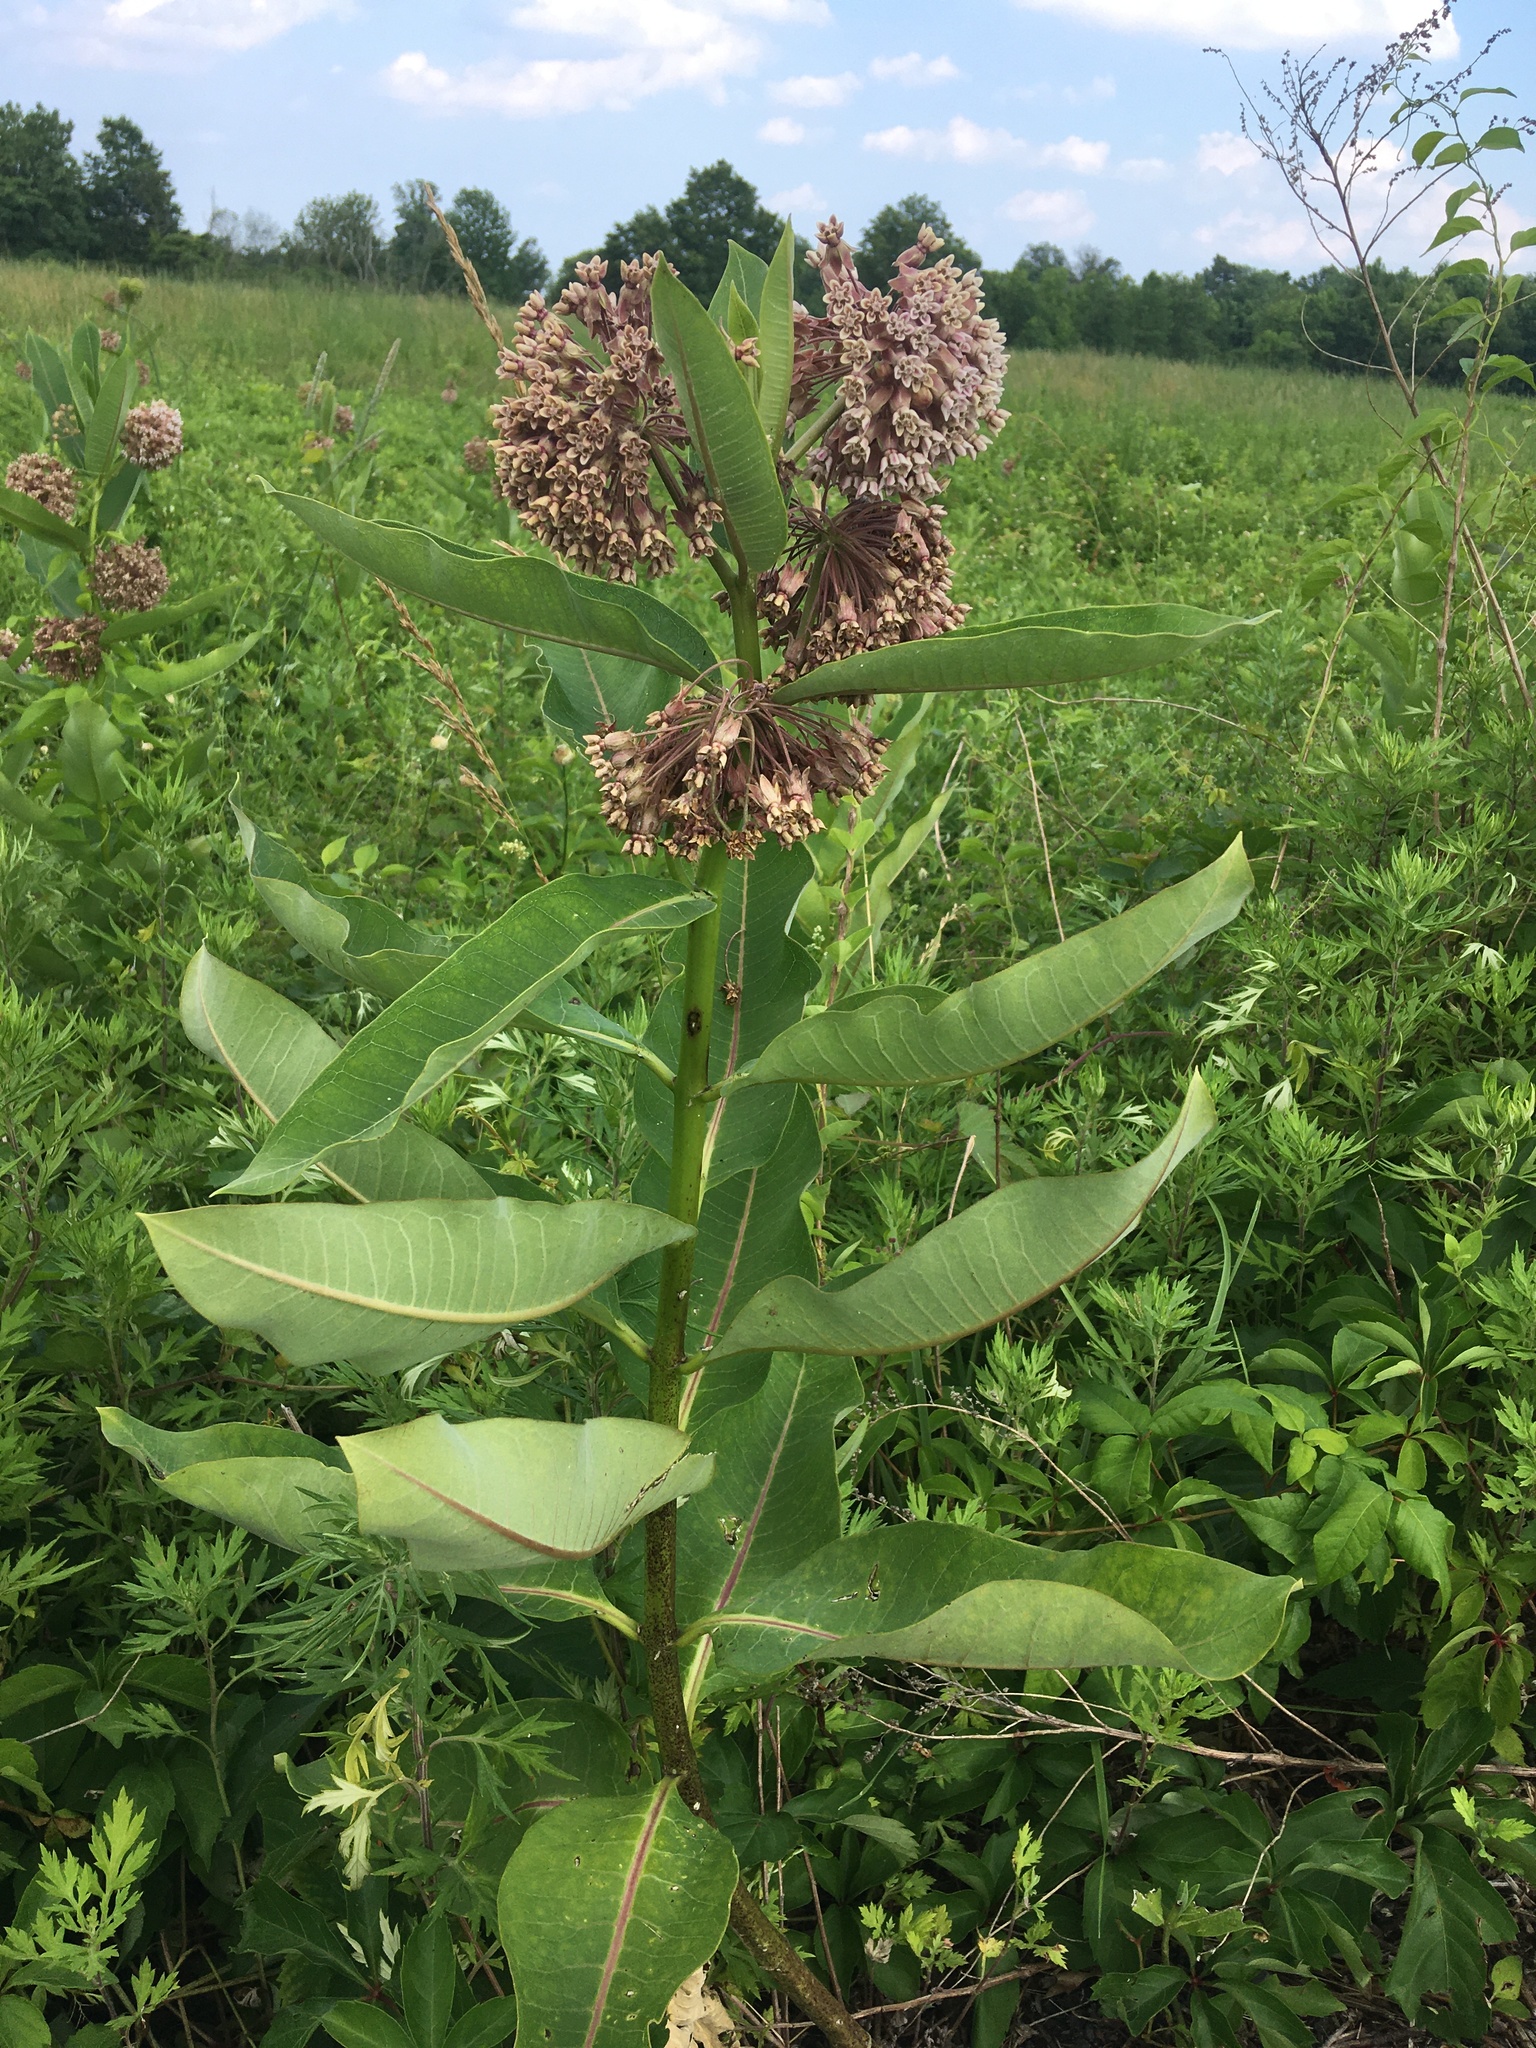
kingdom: Plantae
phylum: Tracheophyta
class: Magnoliopsida
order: Gentianales
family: Apocynaceae
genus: Asclepias
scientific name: Asclepias syriaca
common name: Common milkweed
